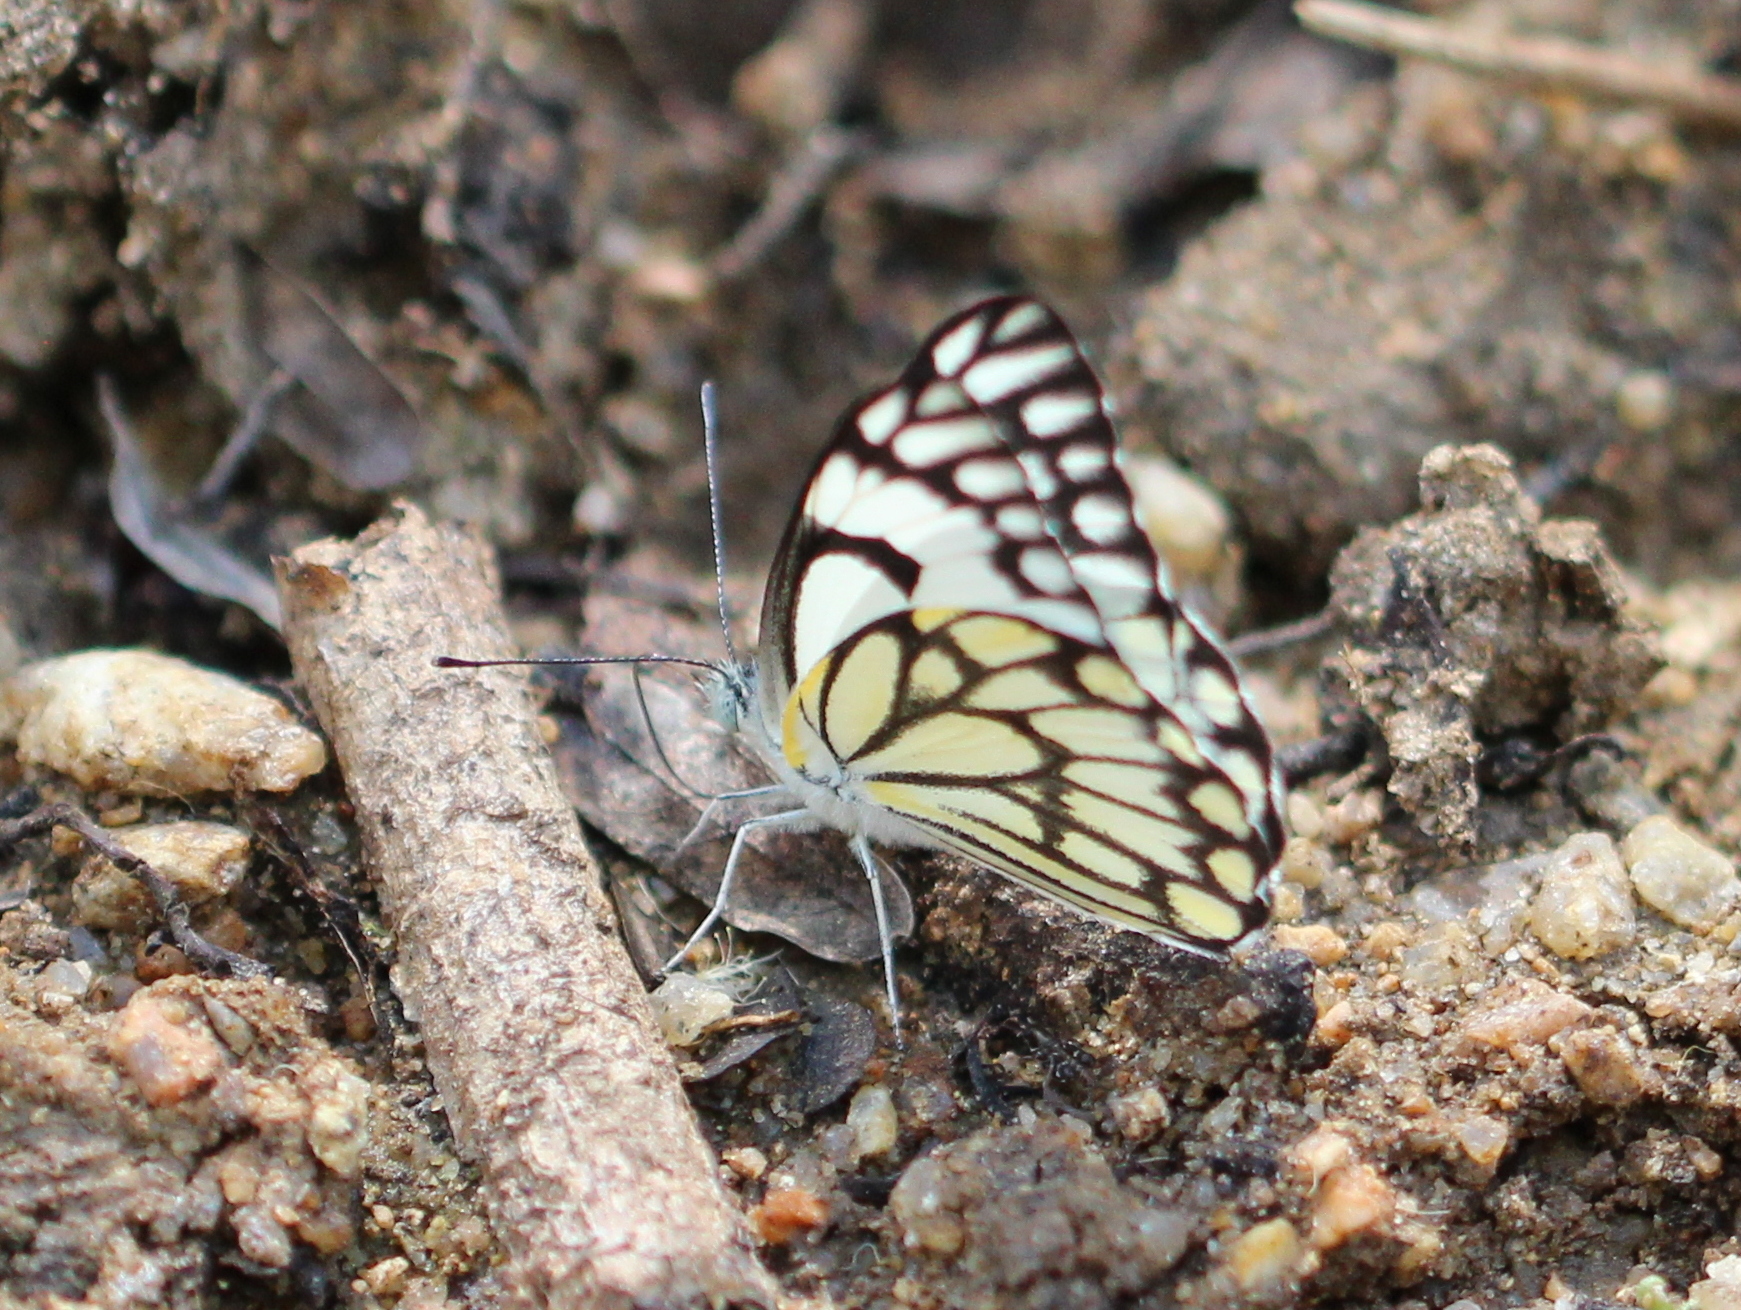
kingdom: Animalia
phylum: Arthropoda
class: Insecta
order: Lepidoptera
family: Pieridae
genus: Belenois
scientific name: Belenois aurota
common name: Brown-veined white
